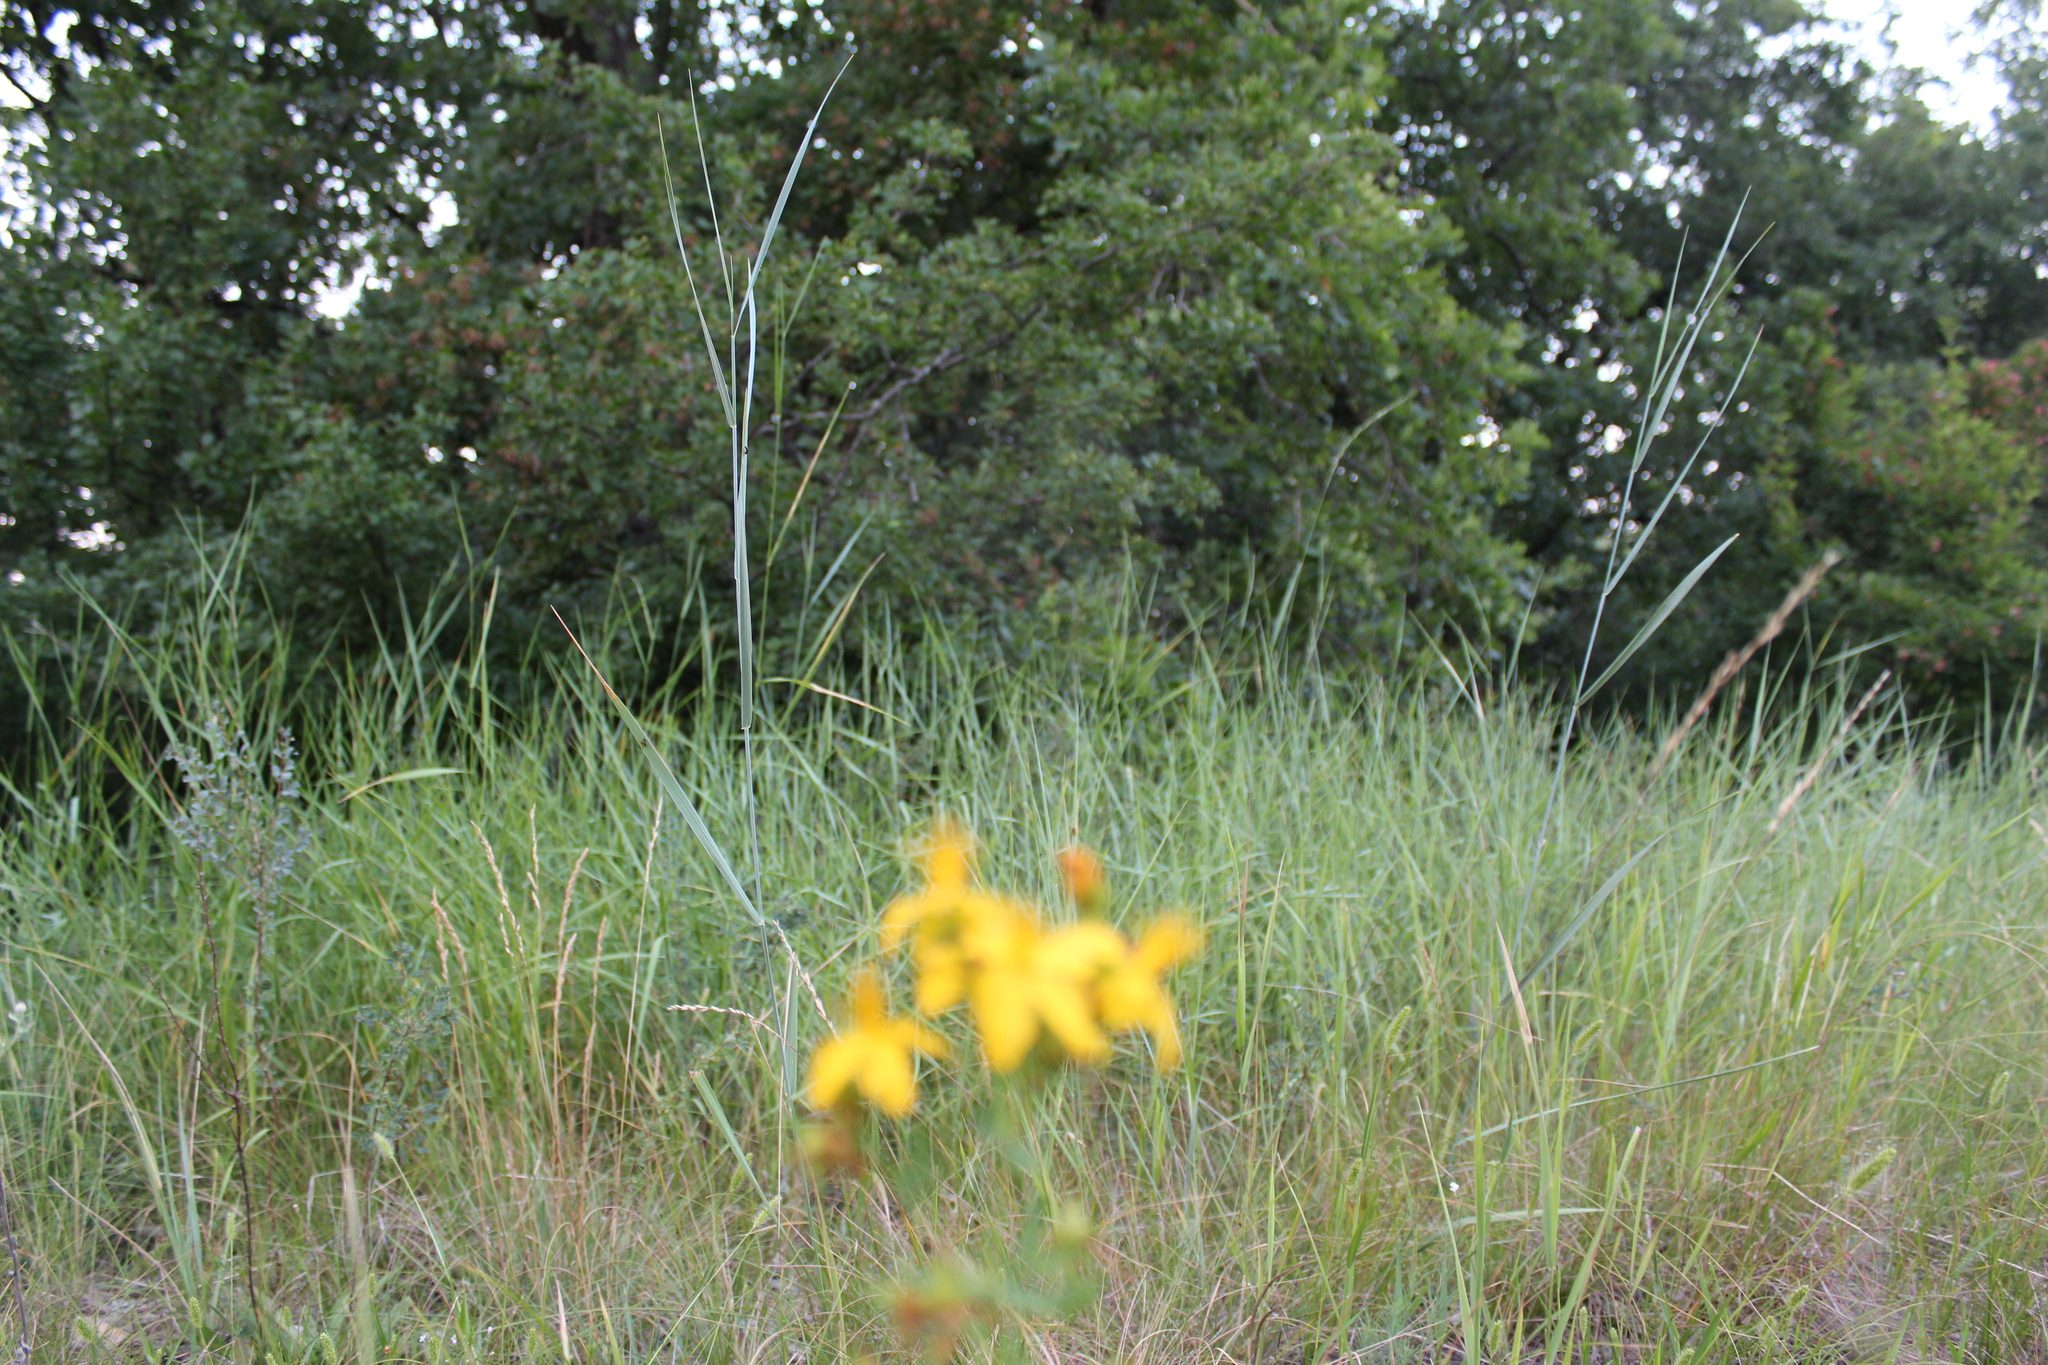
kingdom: Plantae
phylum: Tracheophyta
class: Magnoliopsida
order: Malpighiales
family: Hypericaceae
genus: Hypericum
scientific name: Hypericum perforatum
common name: Common st. johnswort
